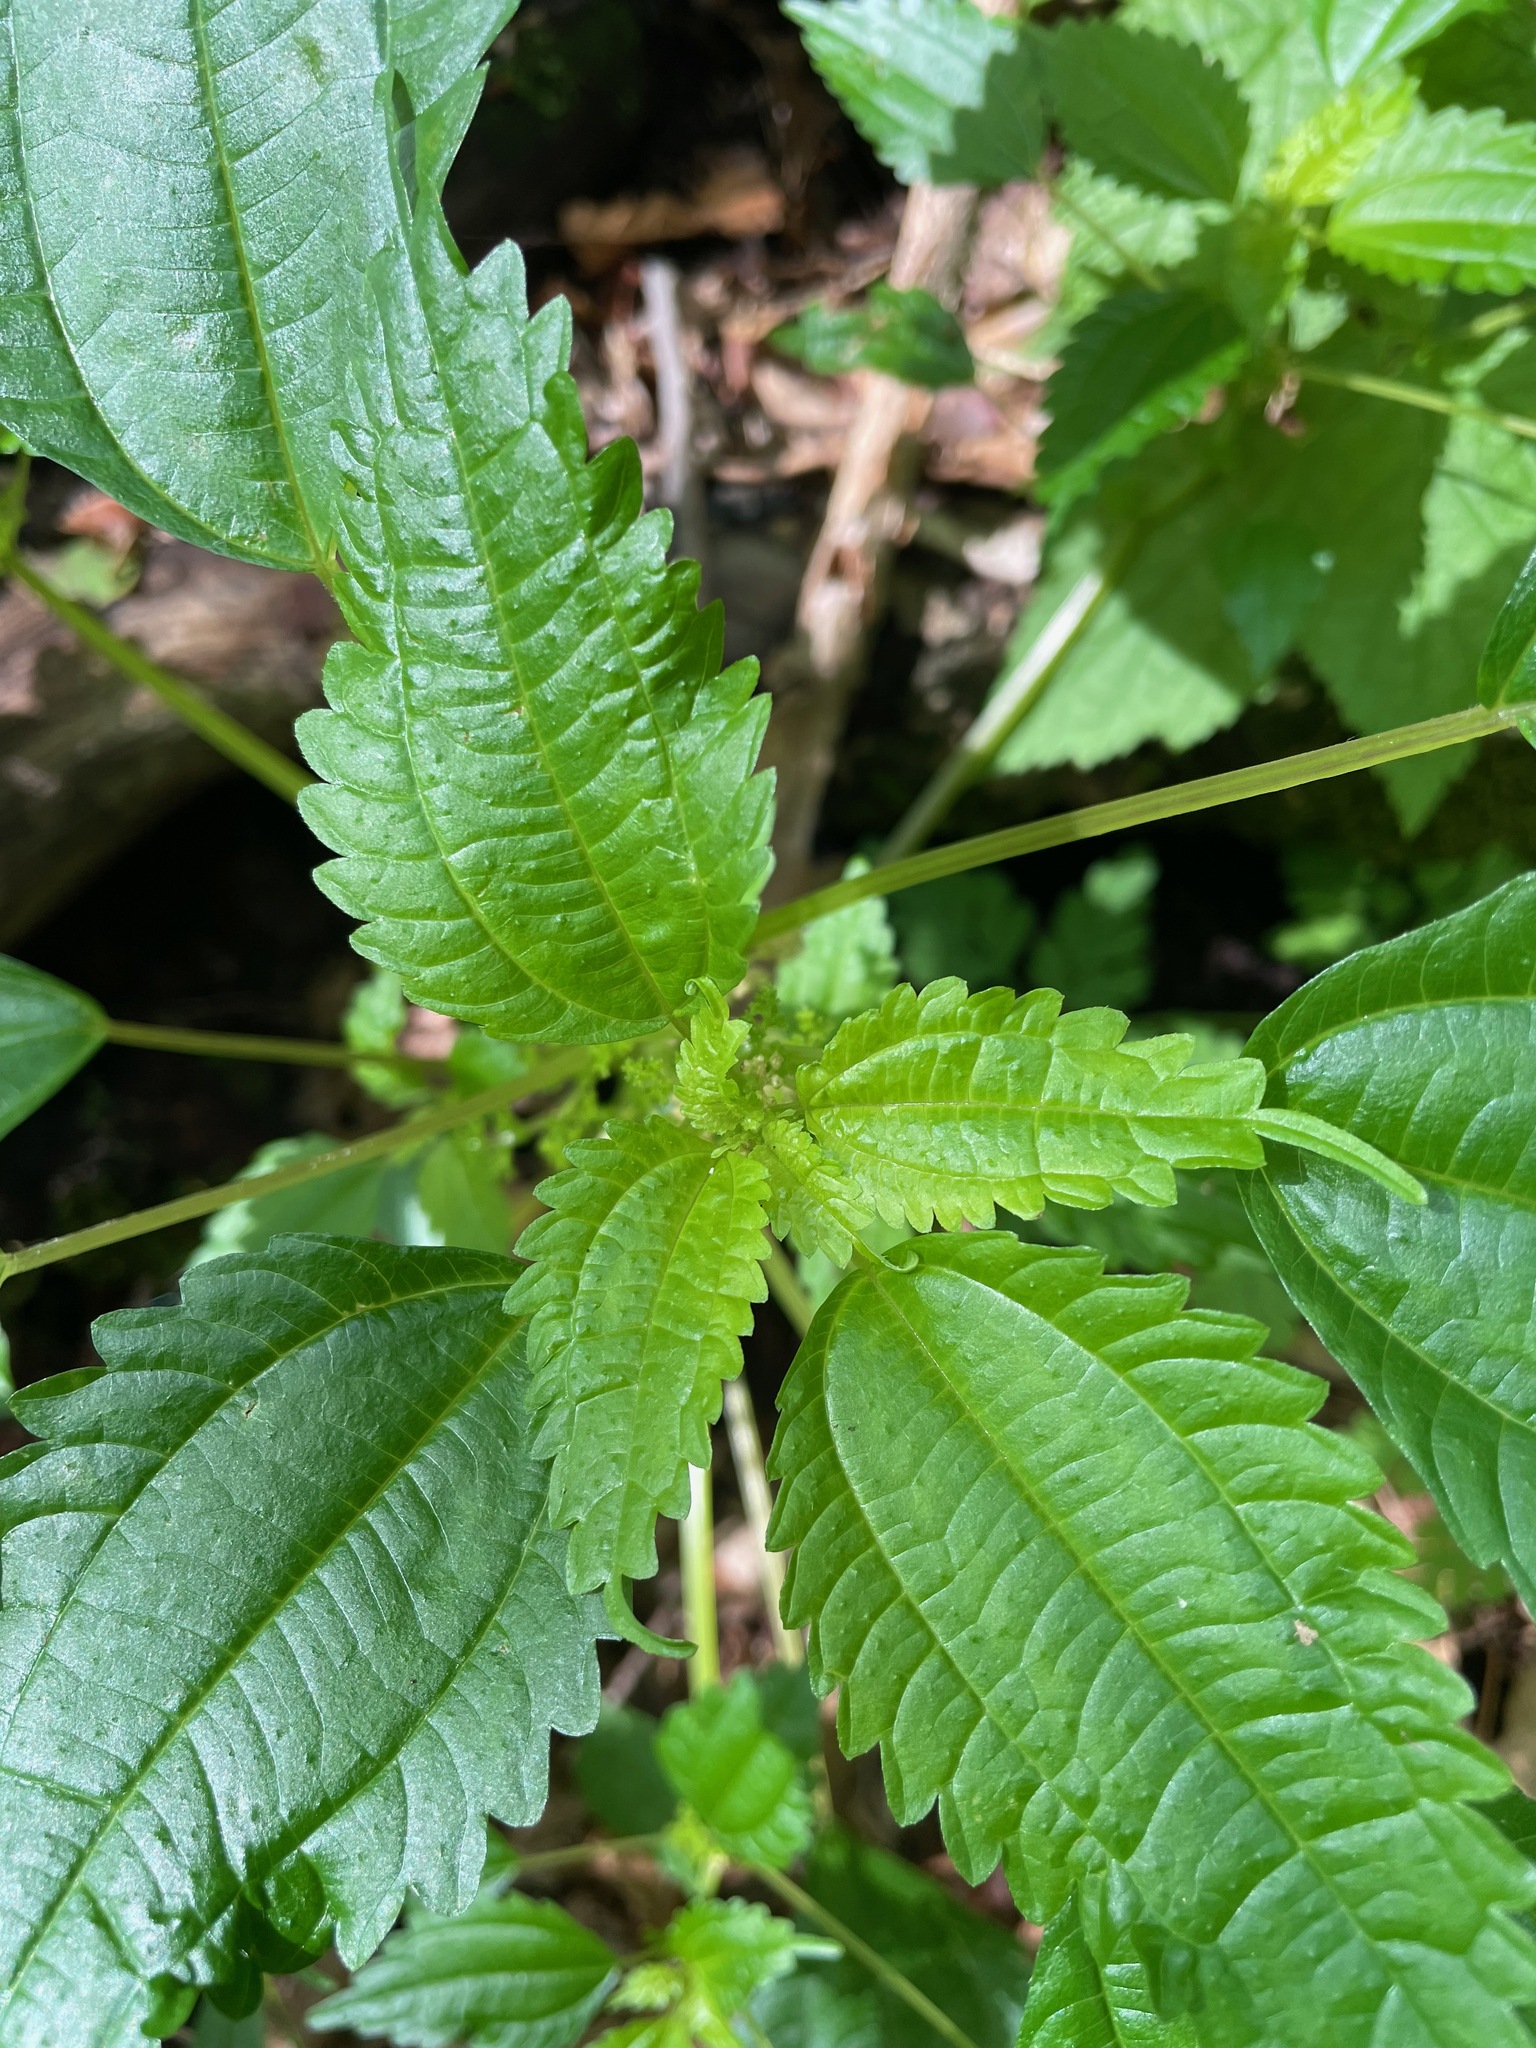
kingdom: Plantae
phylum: Tracheophyta
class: Magnoliopsida
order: Rosales
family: Urticaceae
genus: Pilea
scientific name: Pilea pumila
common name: Clearweed
